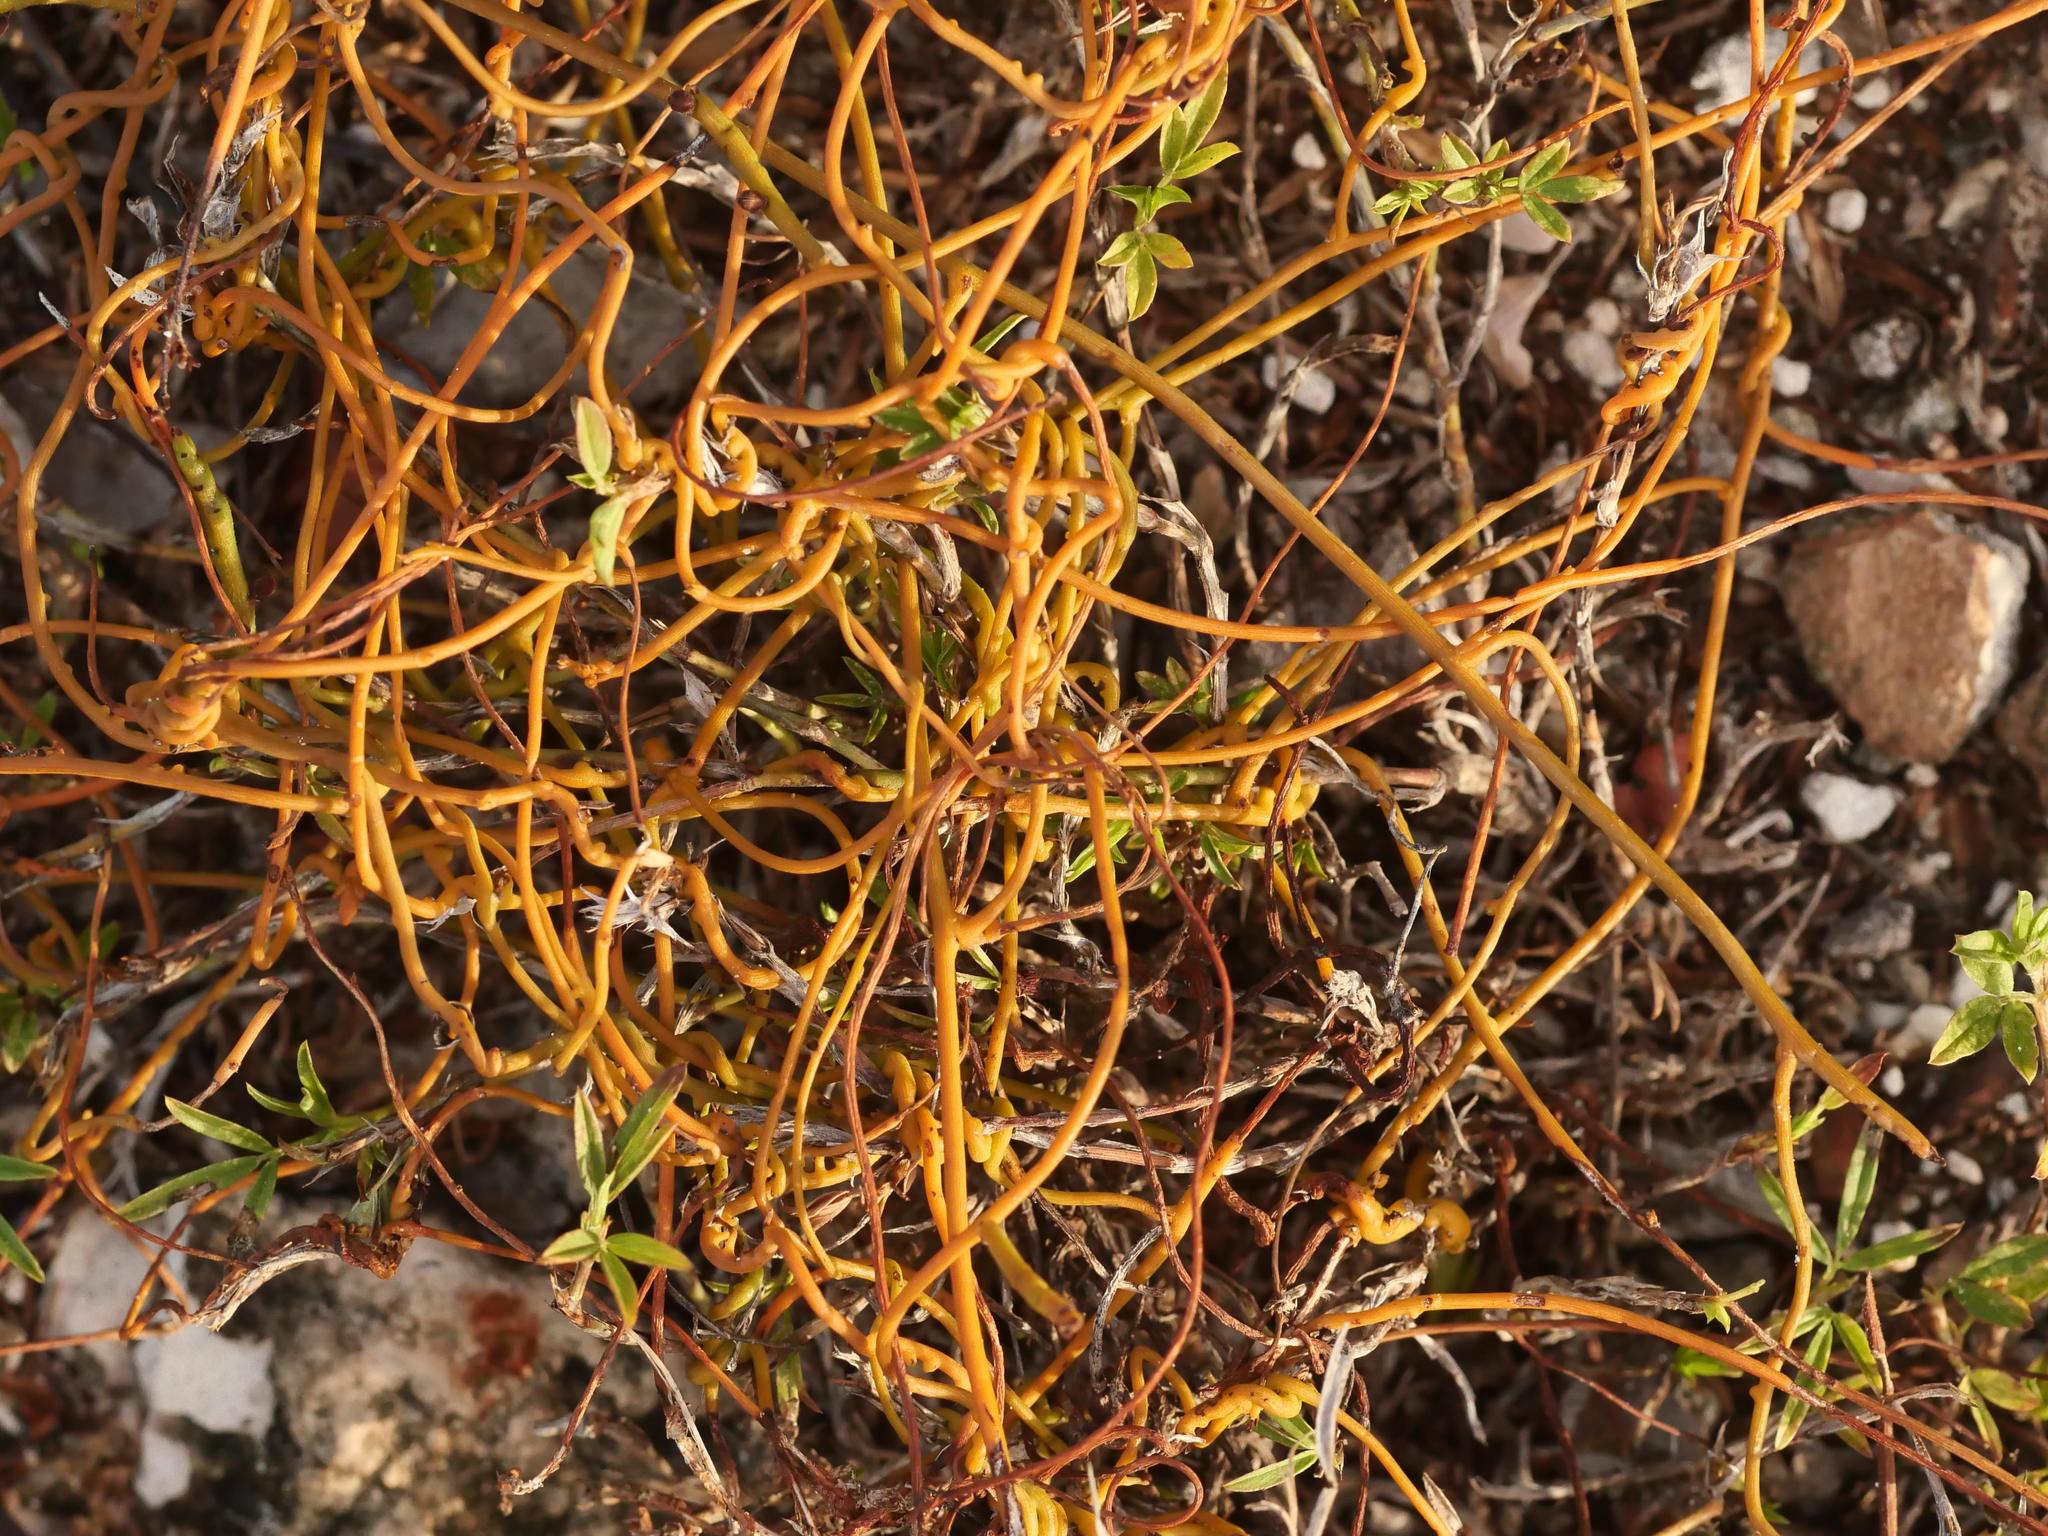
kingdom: Plantae
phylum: Tracheophyta
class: Magnoliopsida
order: Laurales
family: Lauraceae
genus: Cassytha
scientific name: Cassytha filiformis
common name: Dodder-laurel
